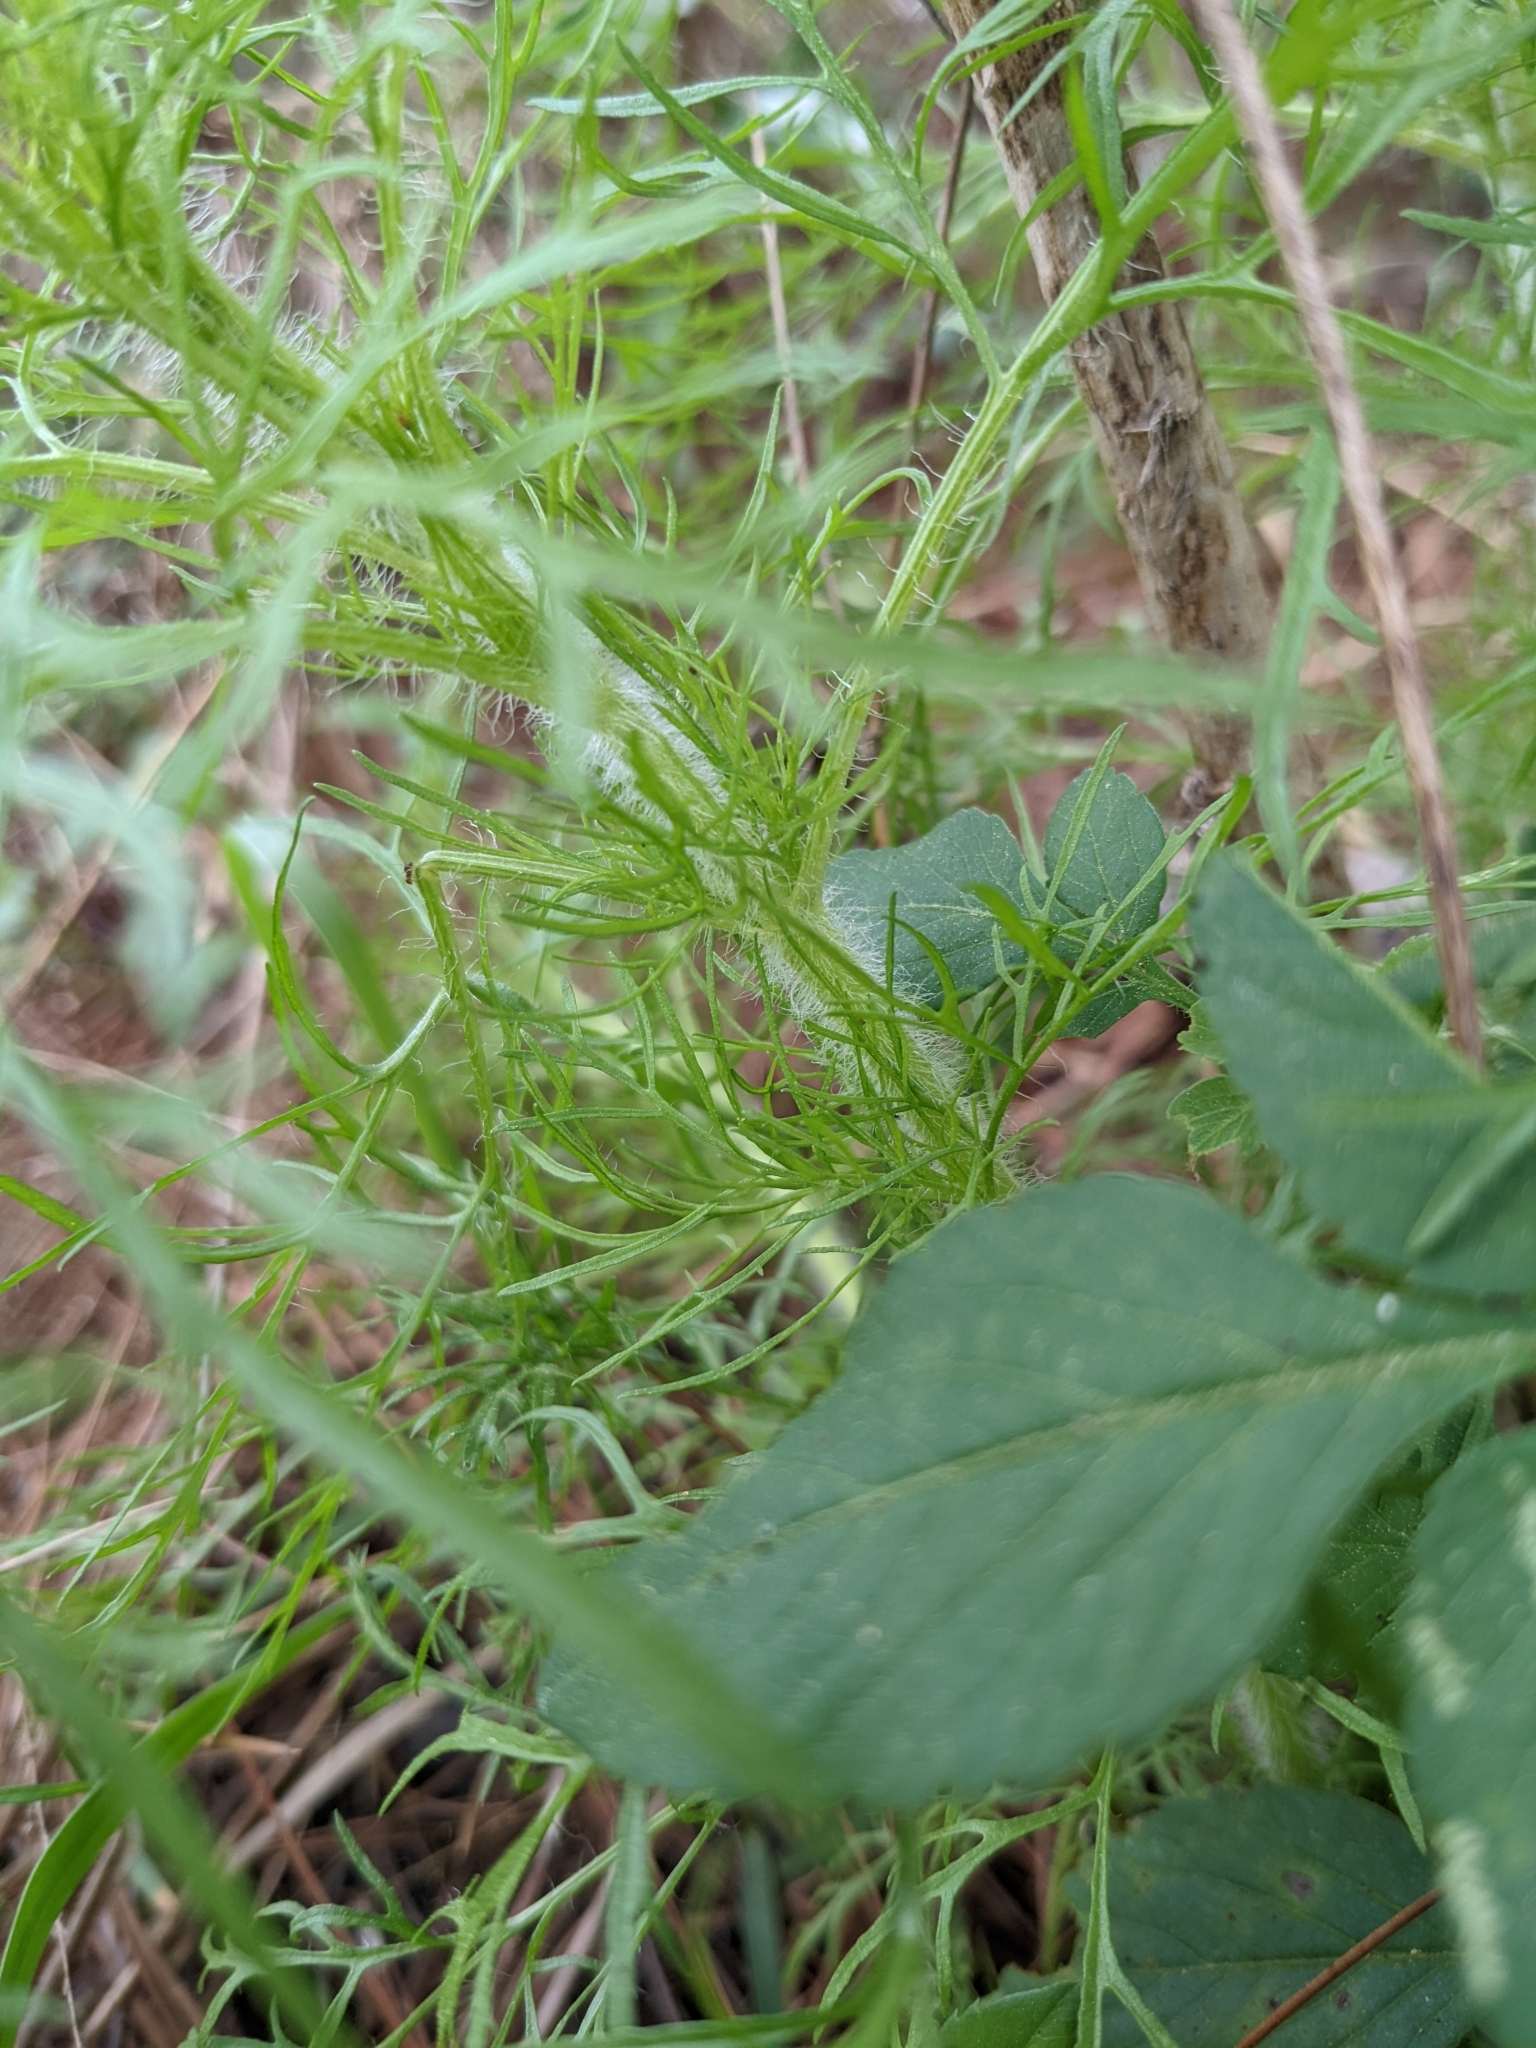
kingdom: Plantae
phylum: Tracheophyta
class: Magnoliopsida
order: Asterales
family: Asteraceae
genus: Eupatorium
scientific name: Eupatorium capillifolium
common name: Dog-fennel
